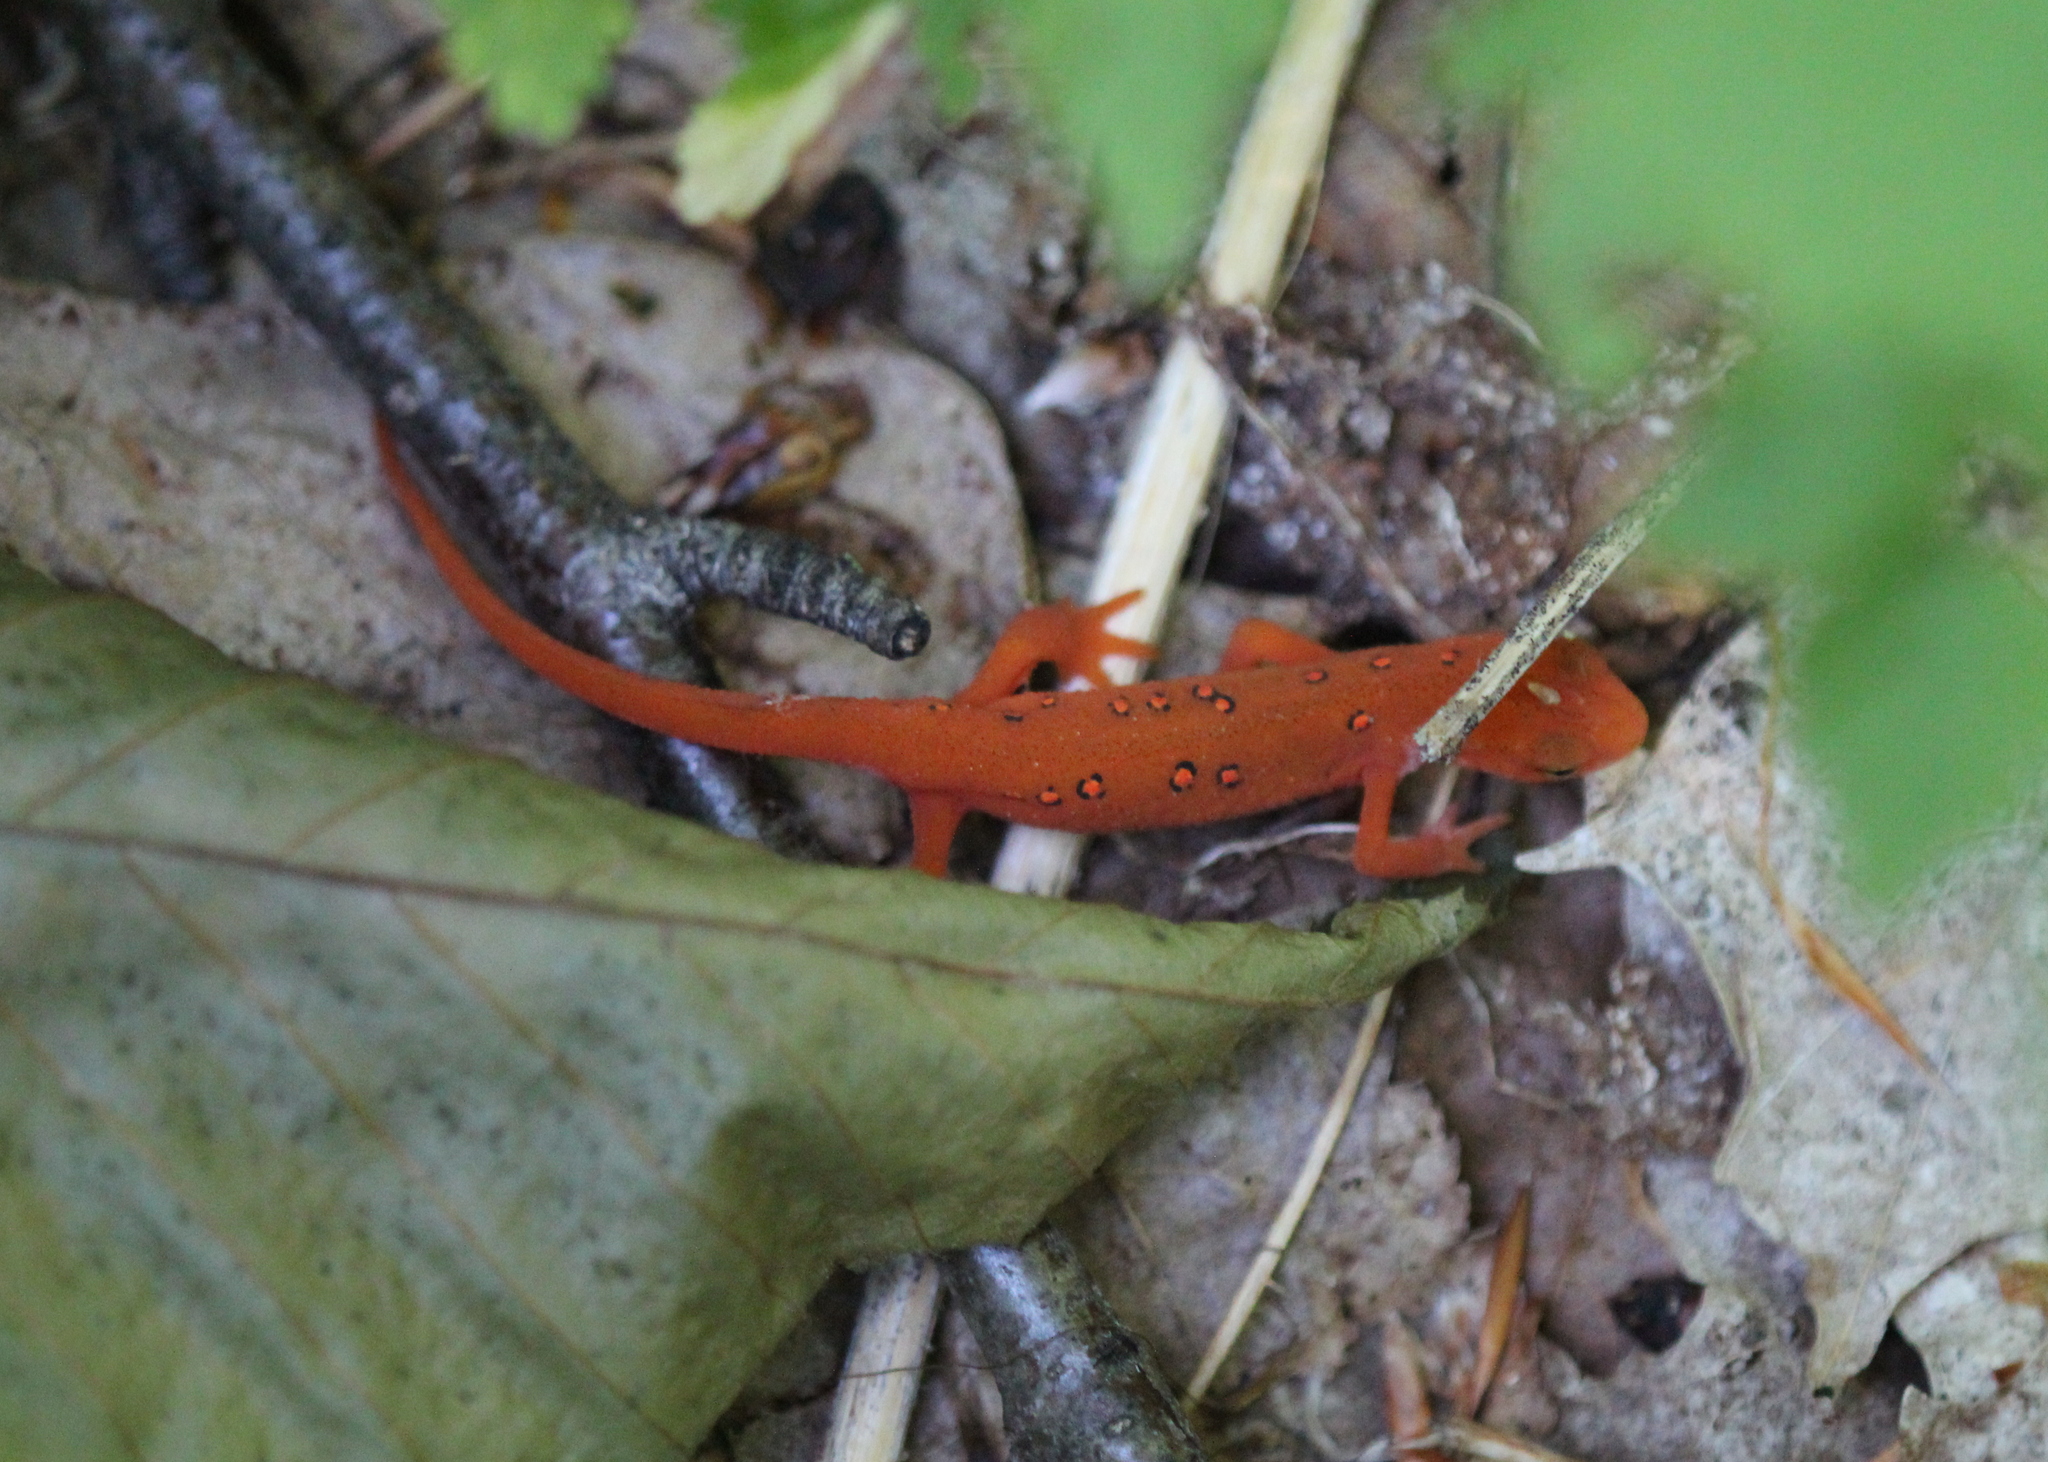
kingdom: Animalia
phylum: Chordata
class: Amphibia
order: Caudata
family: Salamandridae
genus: Notophthalmus
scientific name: Notophthalmus viridescens
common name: Eastern newt
